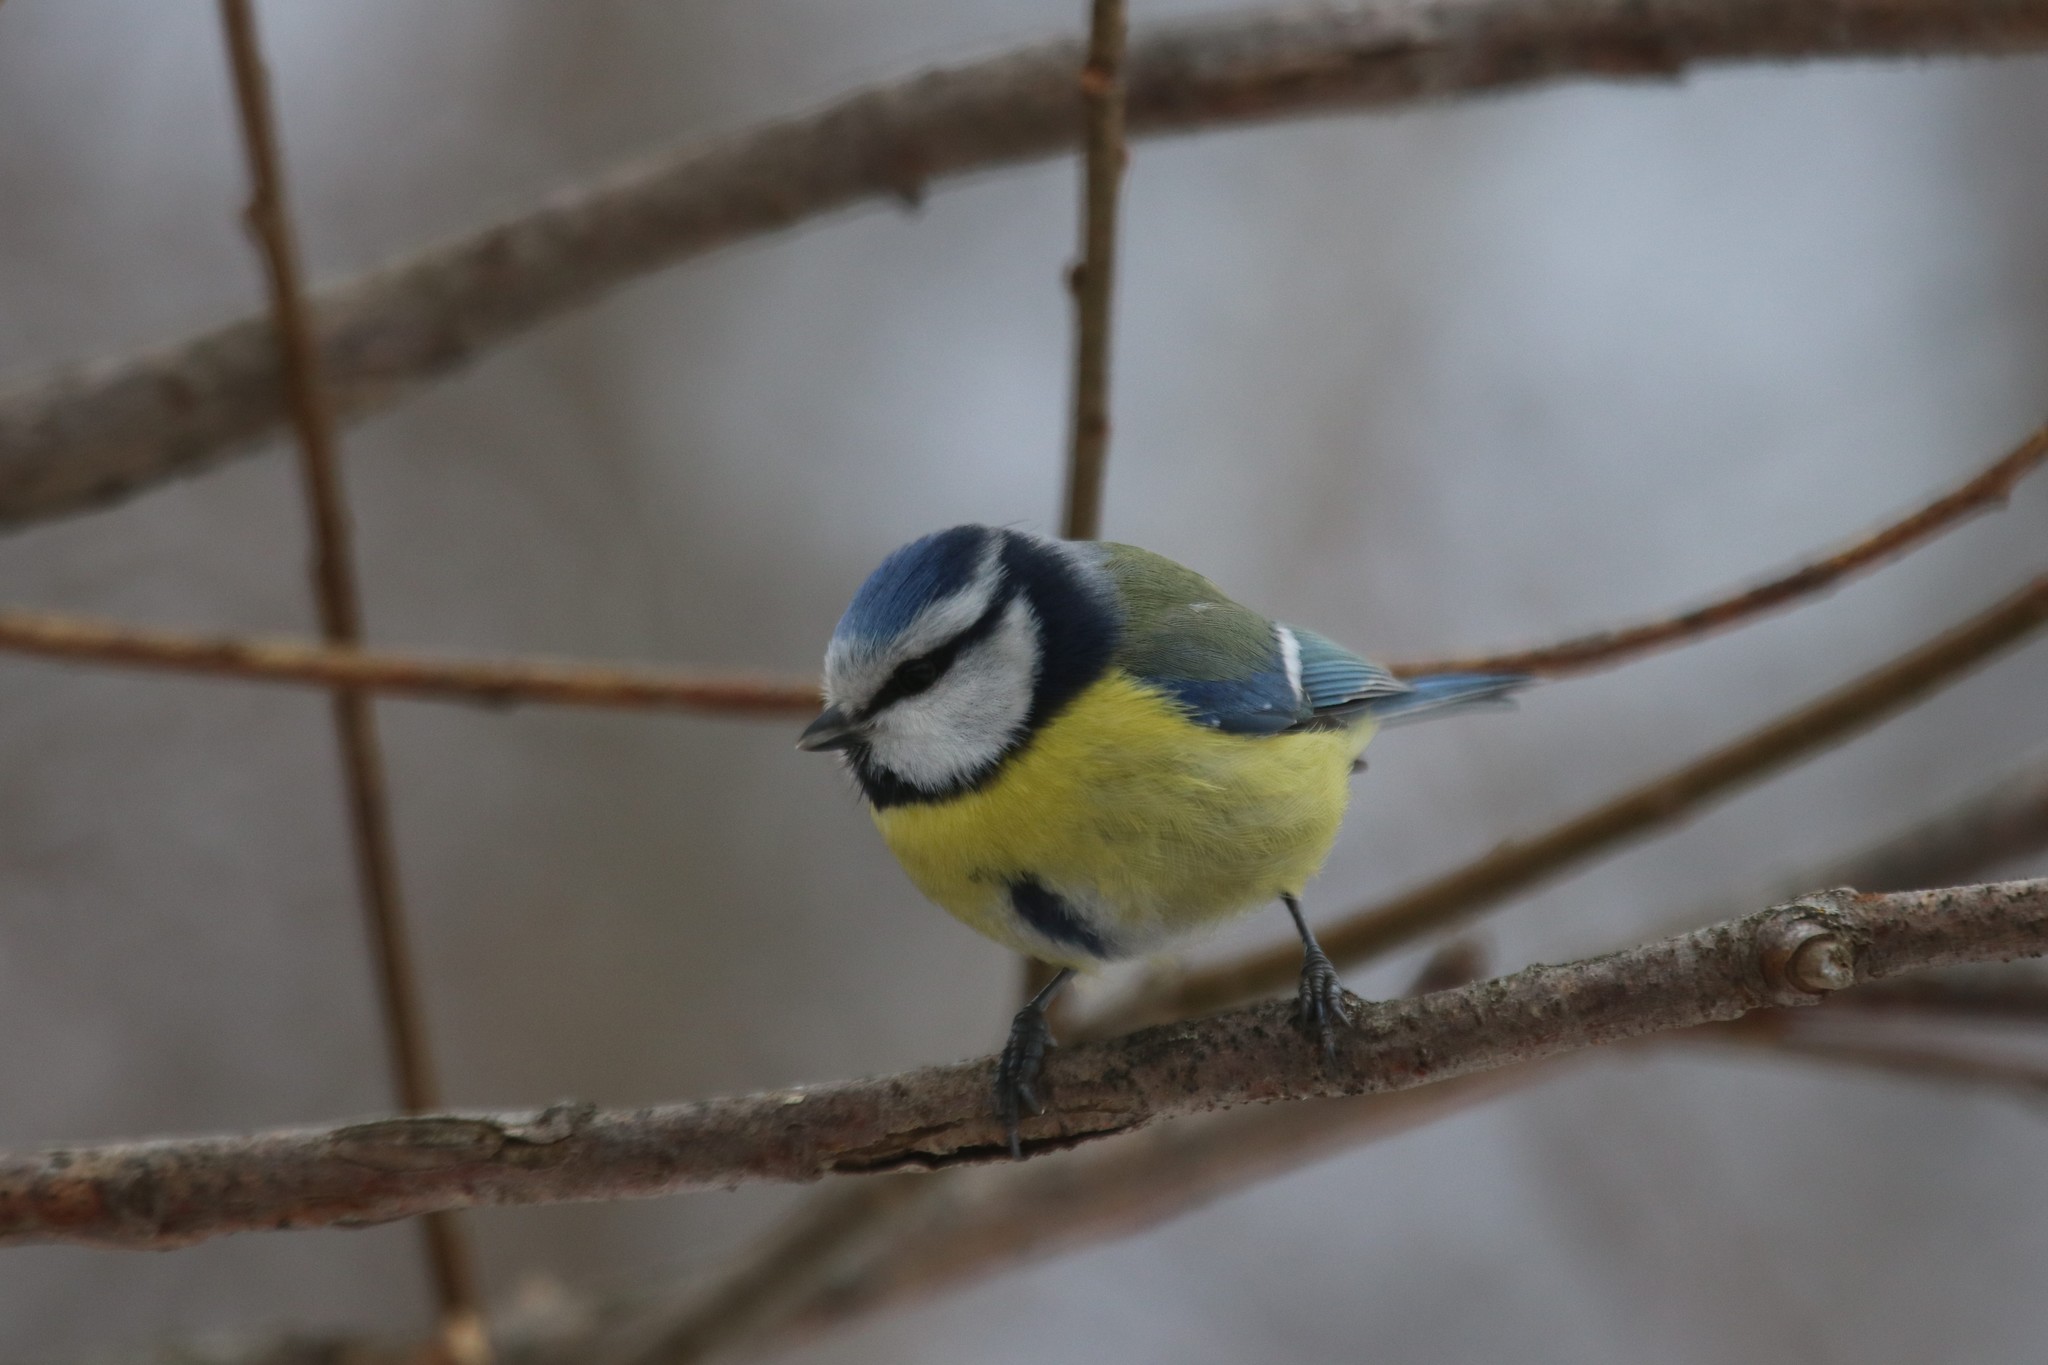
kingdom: Animalia
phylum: Chordata
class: Aves
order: Passeriformes
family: Paridae
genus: Cyanistes
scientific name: Cyanistes caeruleus
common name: Eurasian blue tit
